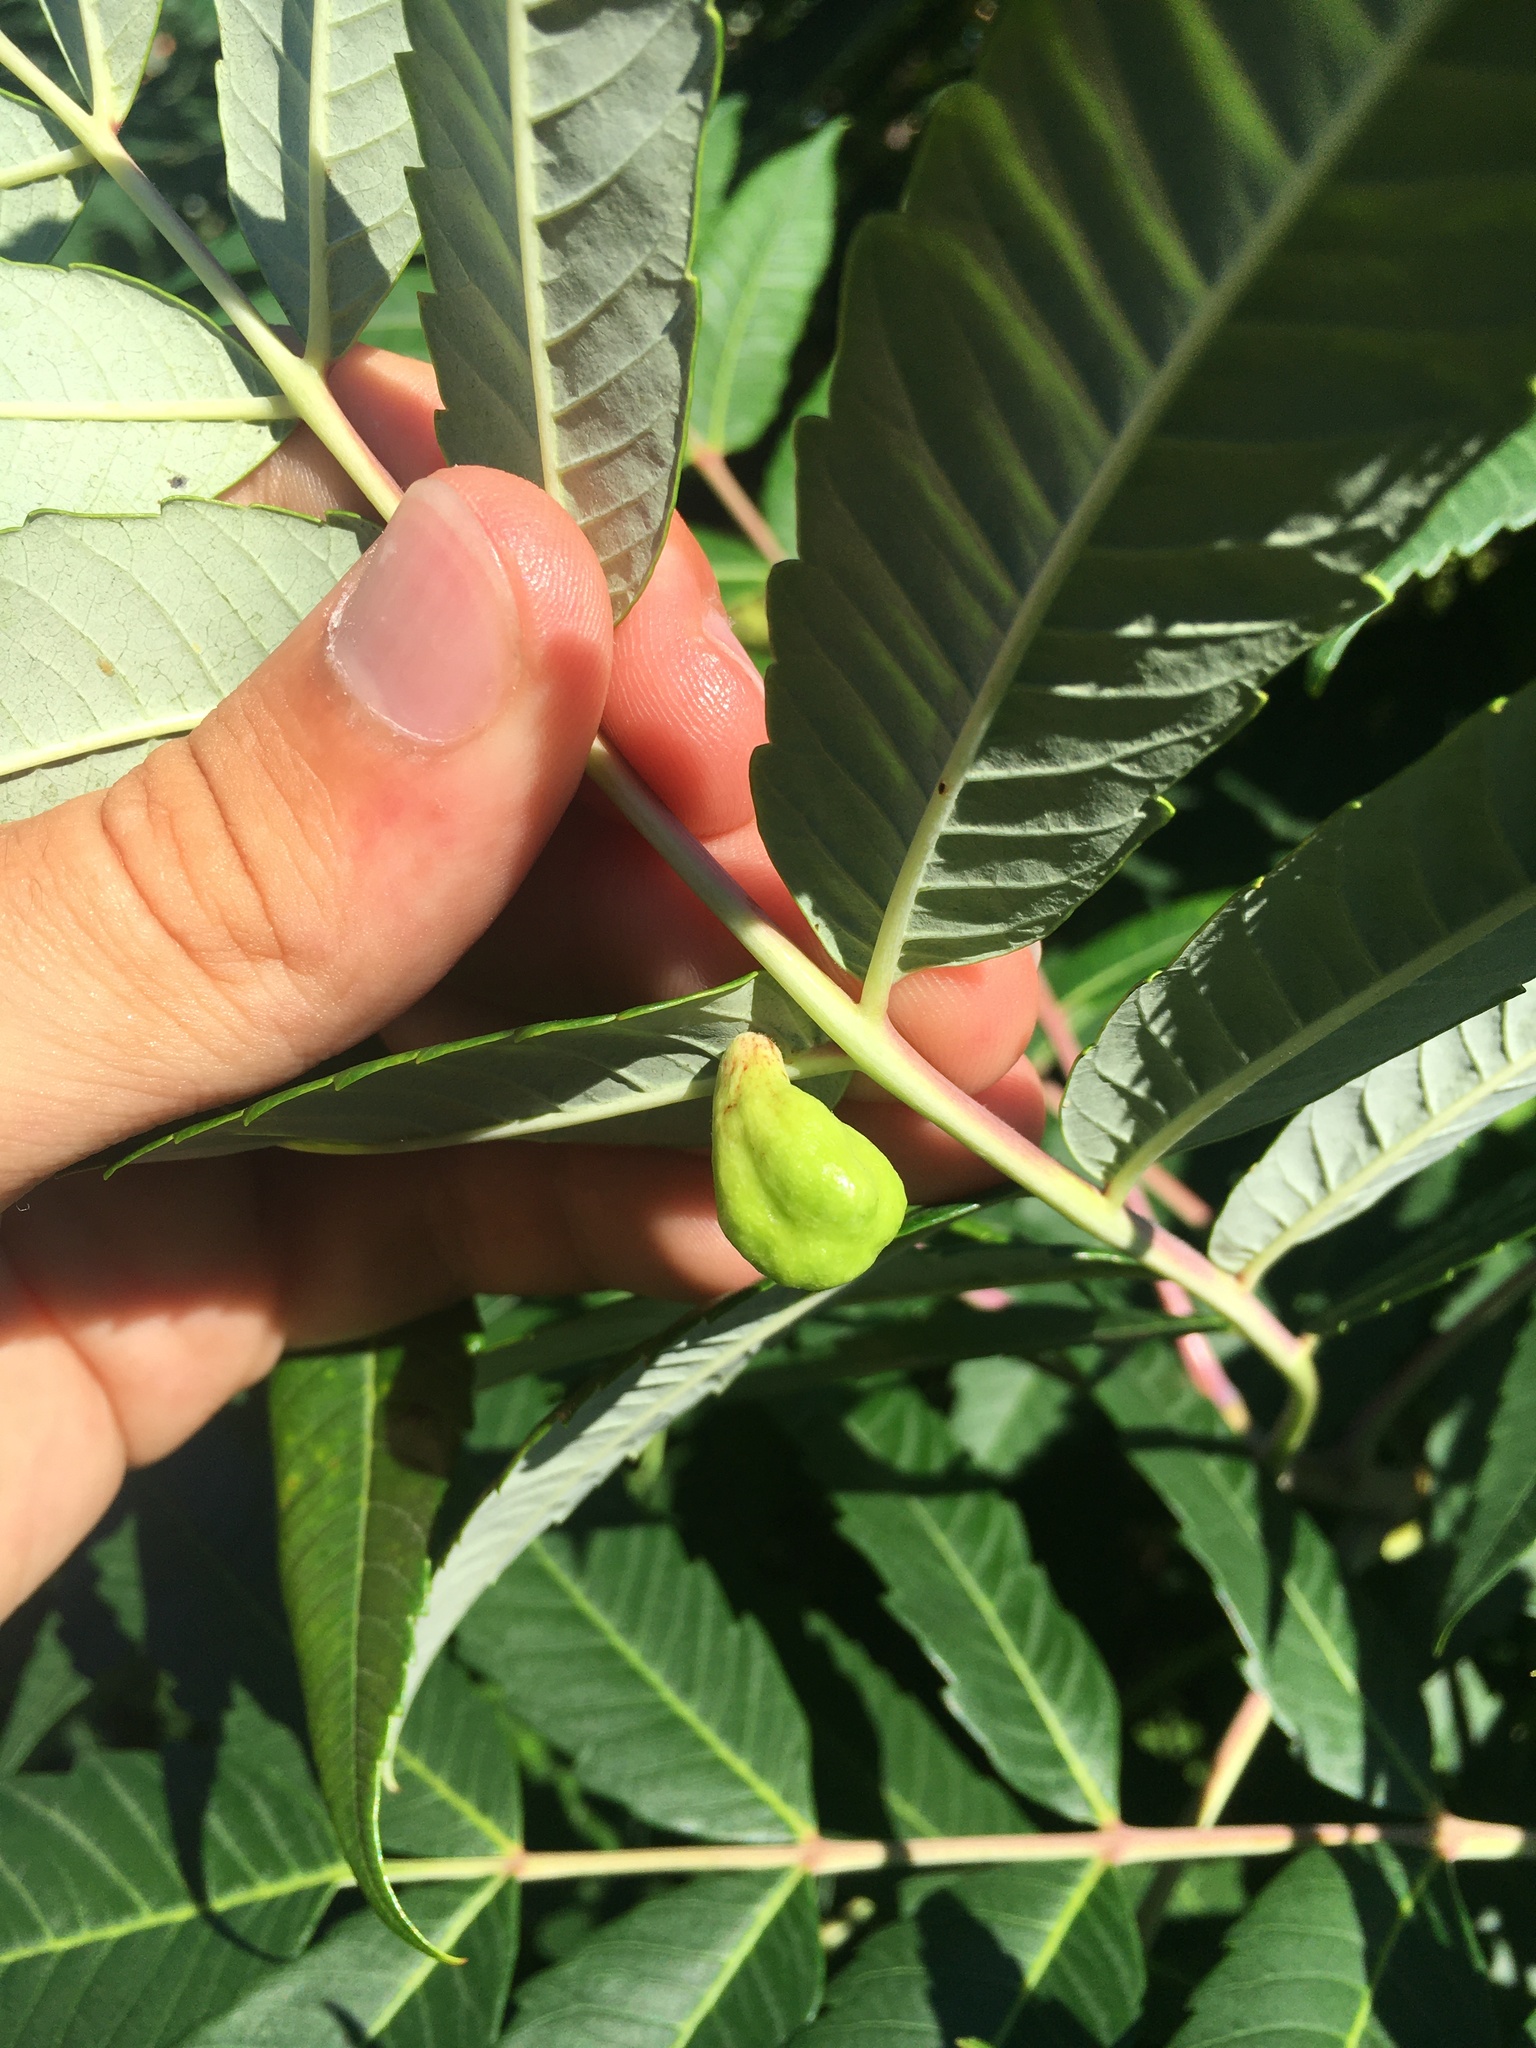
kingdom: Animalia
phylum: Arthropoda
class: Insecta
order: Hemiptera
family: Aphididae
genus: Melaphis
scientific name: Melaphis rhois
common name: Sumac gall aphid
